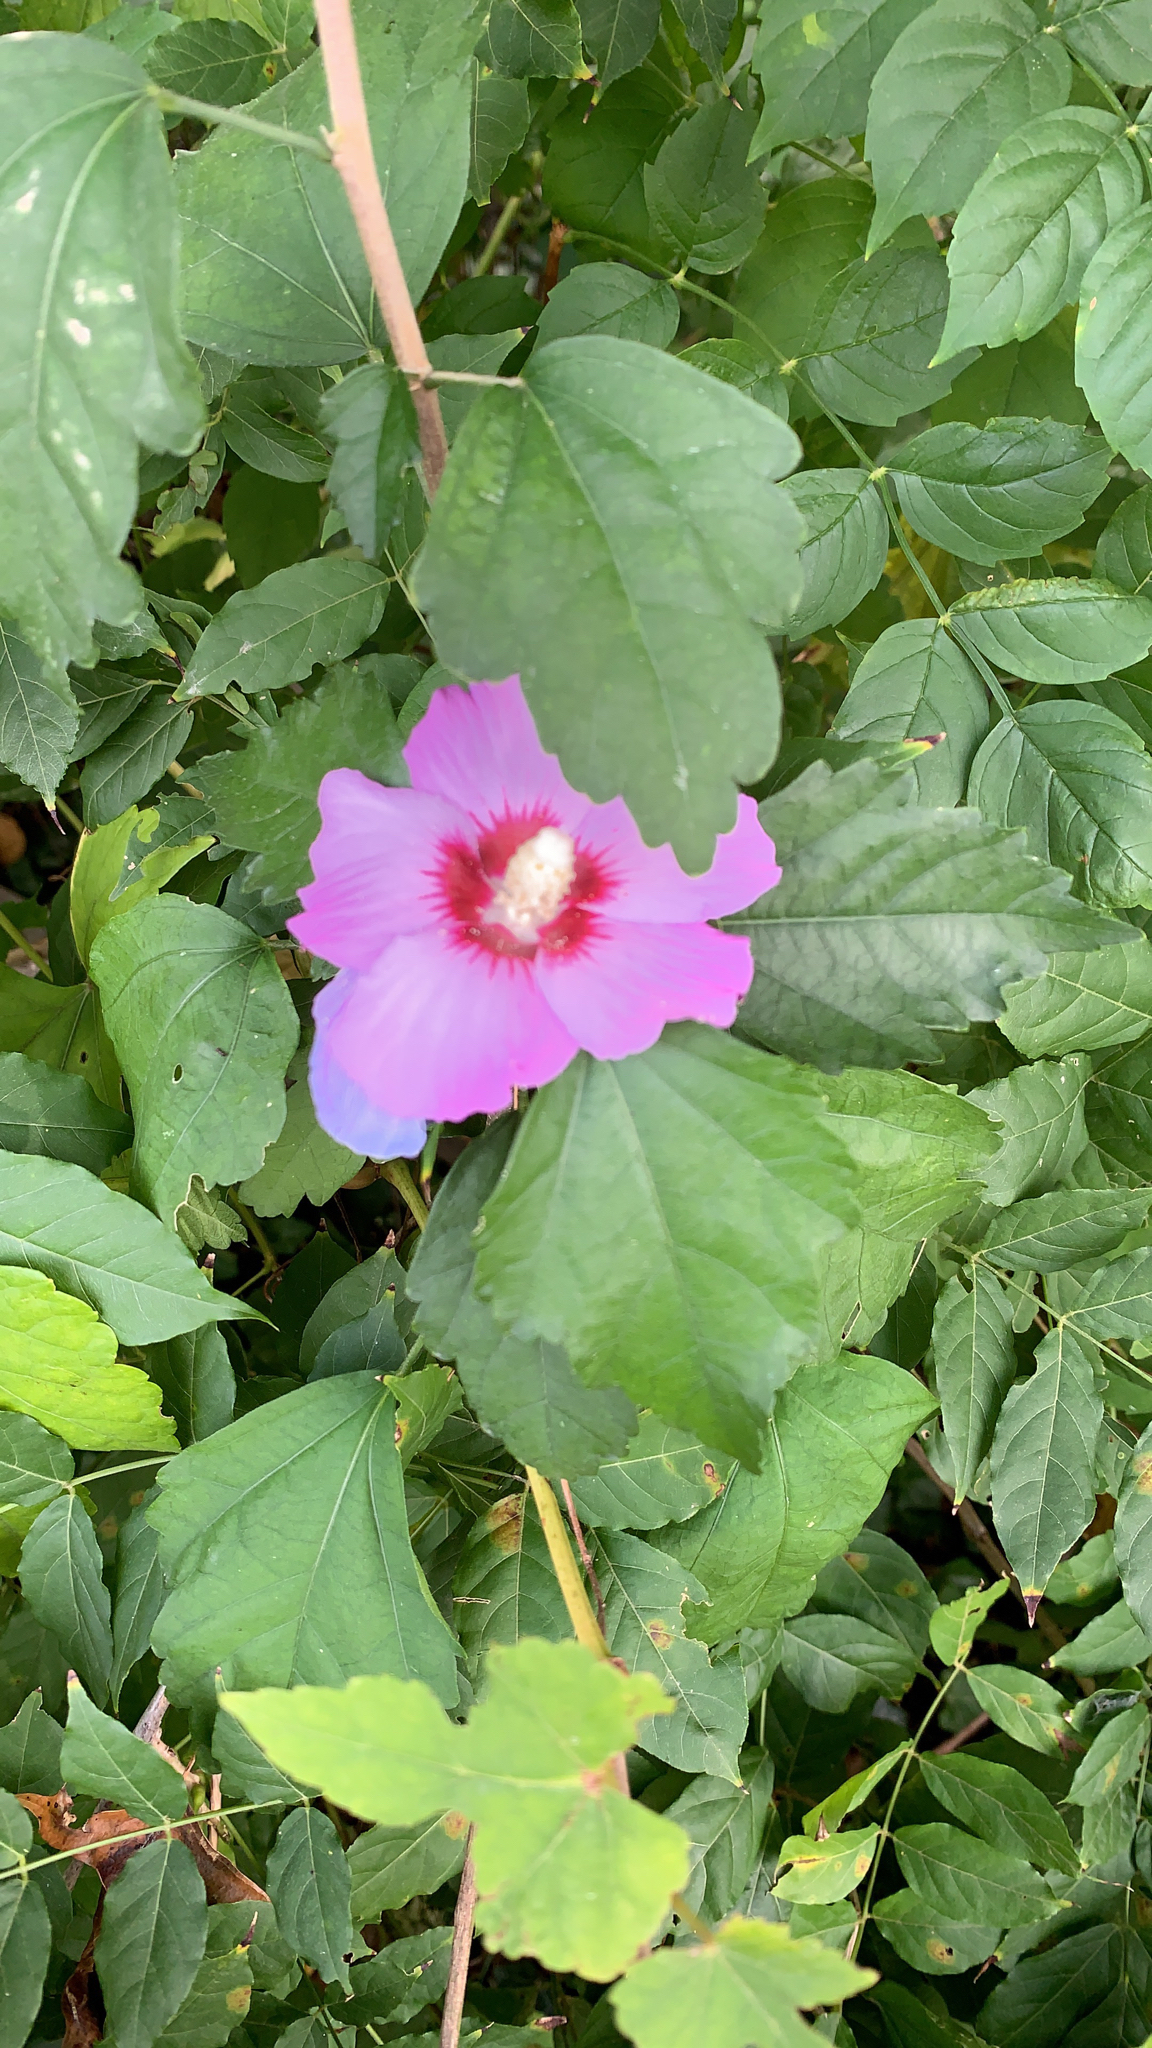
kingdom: Plantae
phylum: Tracheophyta
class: Magnoliopsida
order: Malvales
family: Malvaceae
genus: Hibiscus
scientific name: Hibiscus syriacus
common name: Syrian ketmia
